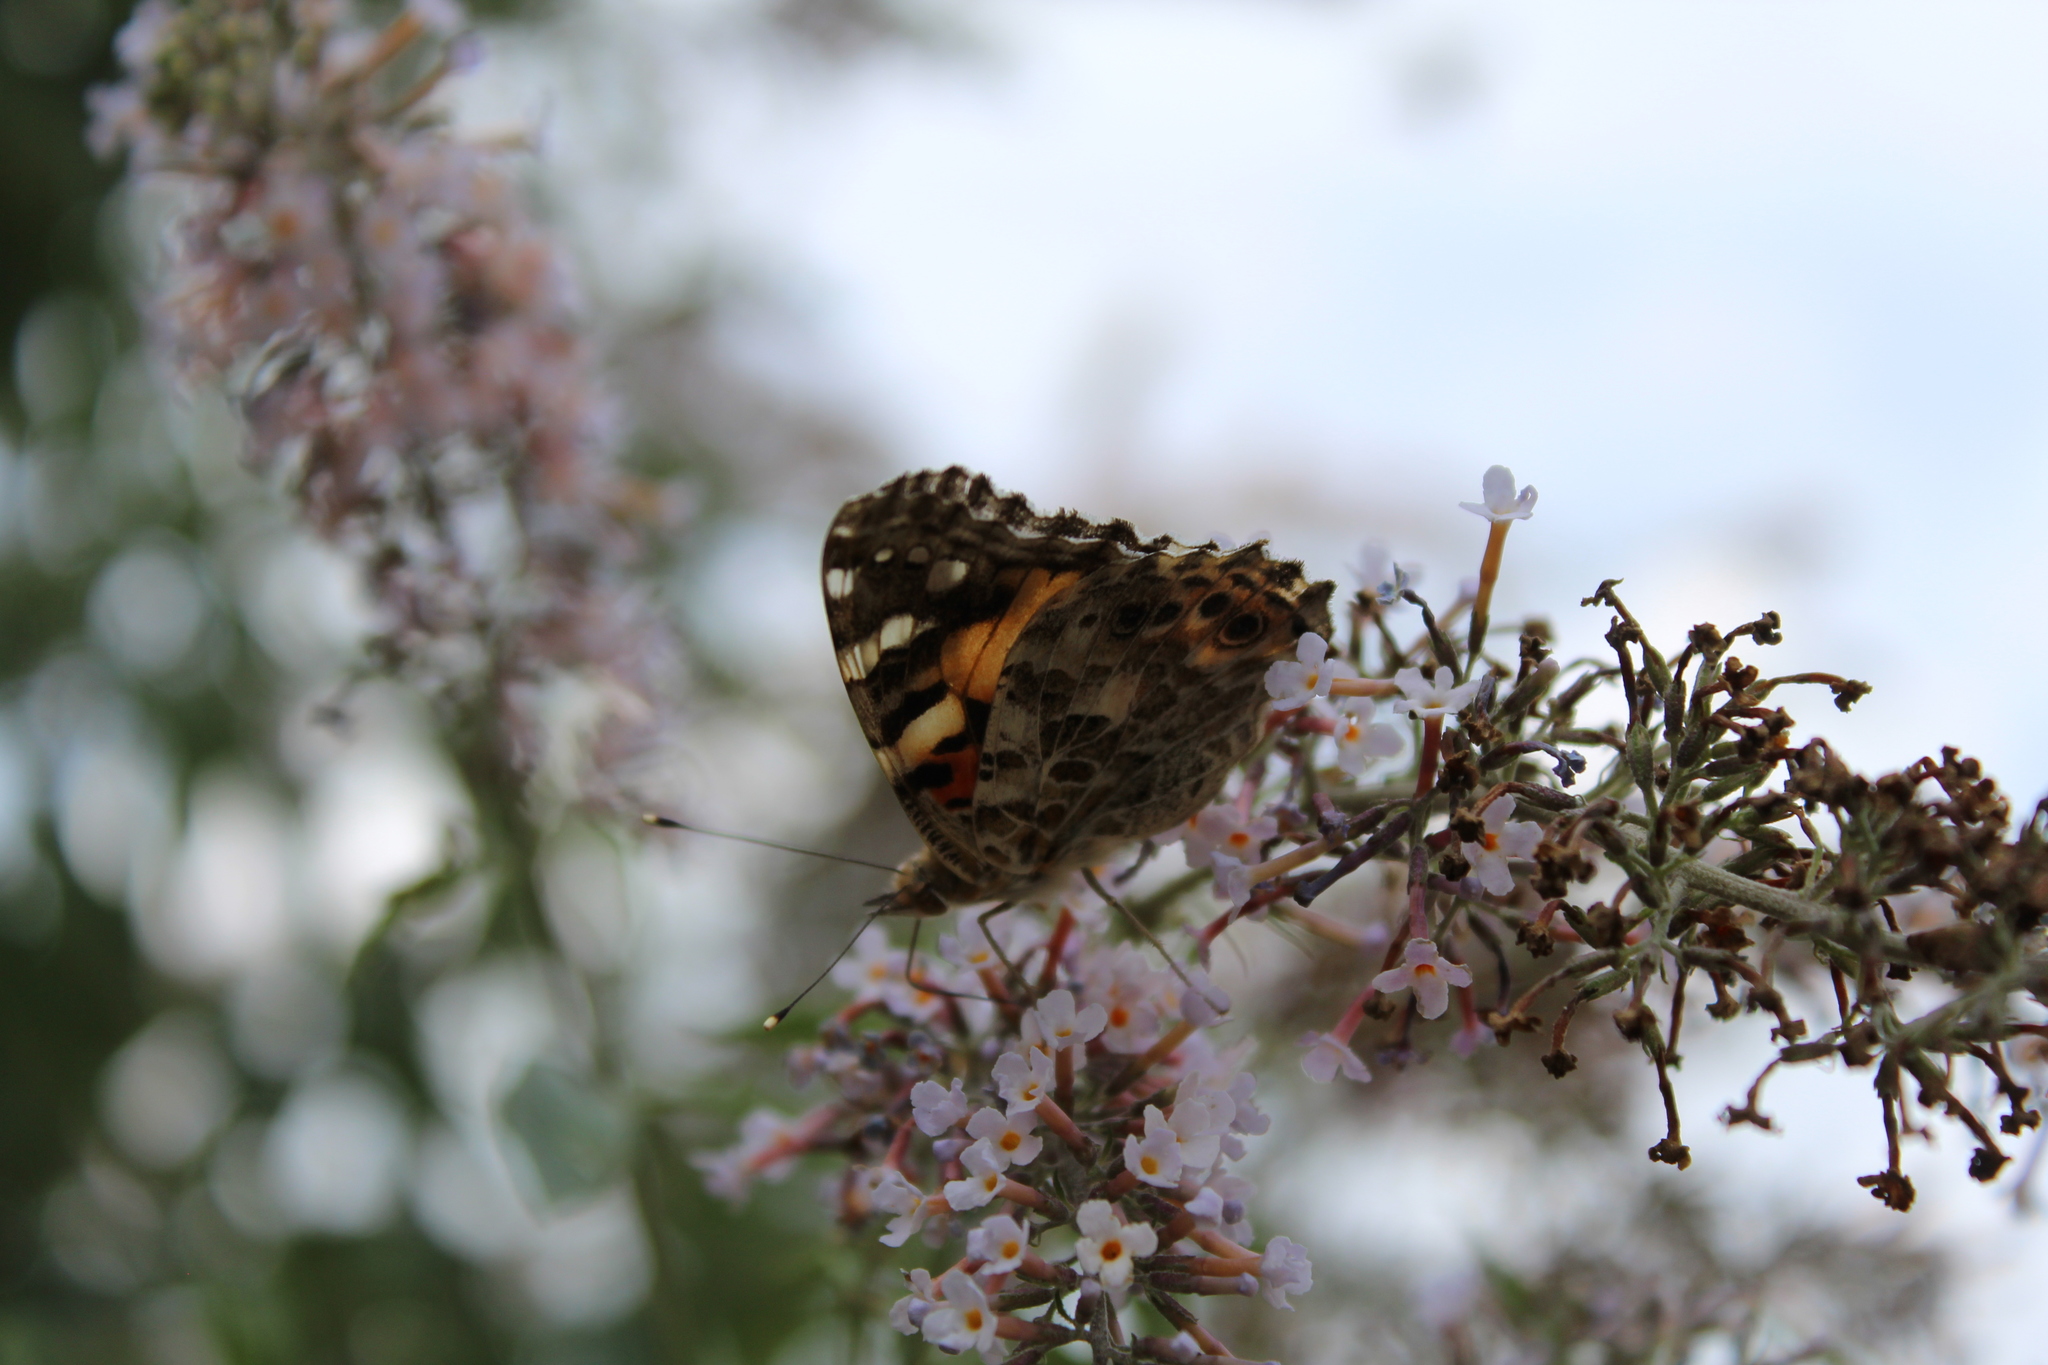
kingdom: Animalia
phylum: Arthropoda
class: Insecta
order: Lepidoptera
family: Nymphalidae
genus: Vanessa
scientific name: Vanessa cardui
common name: Painted lady
